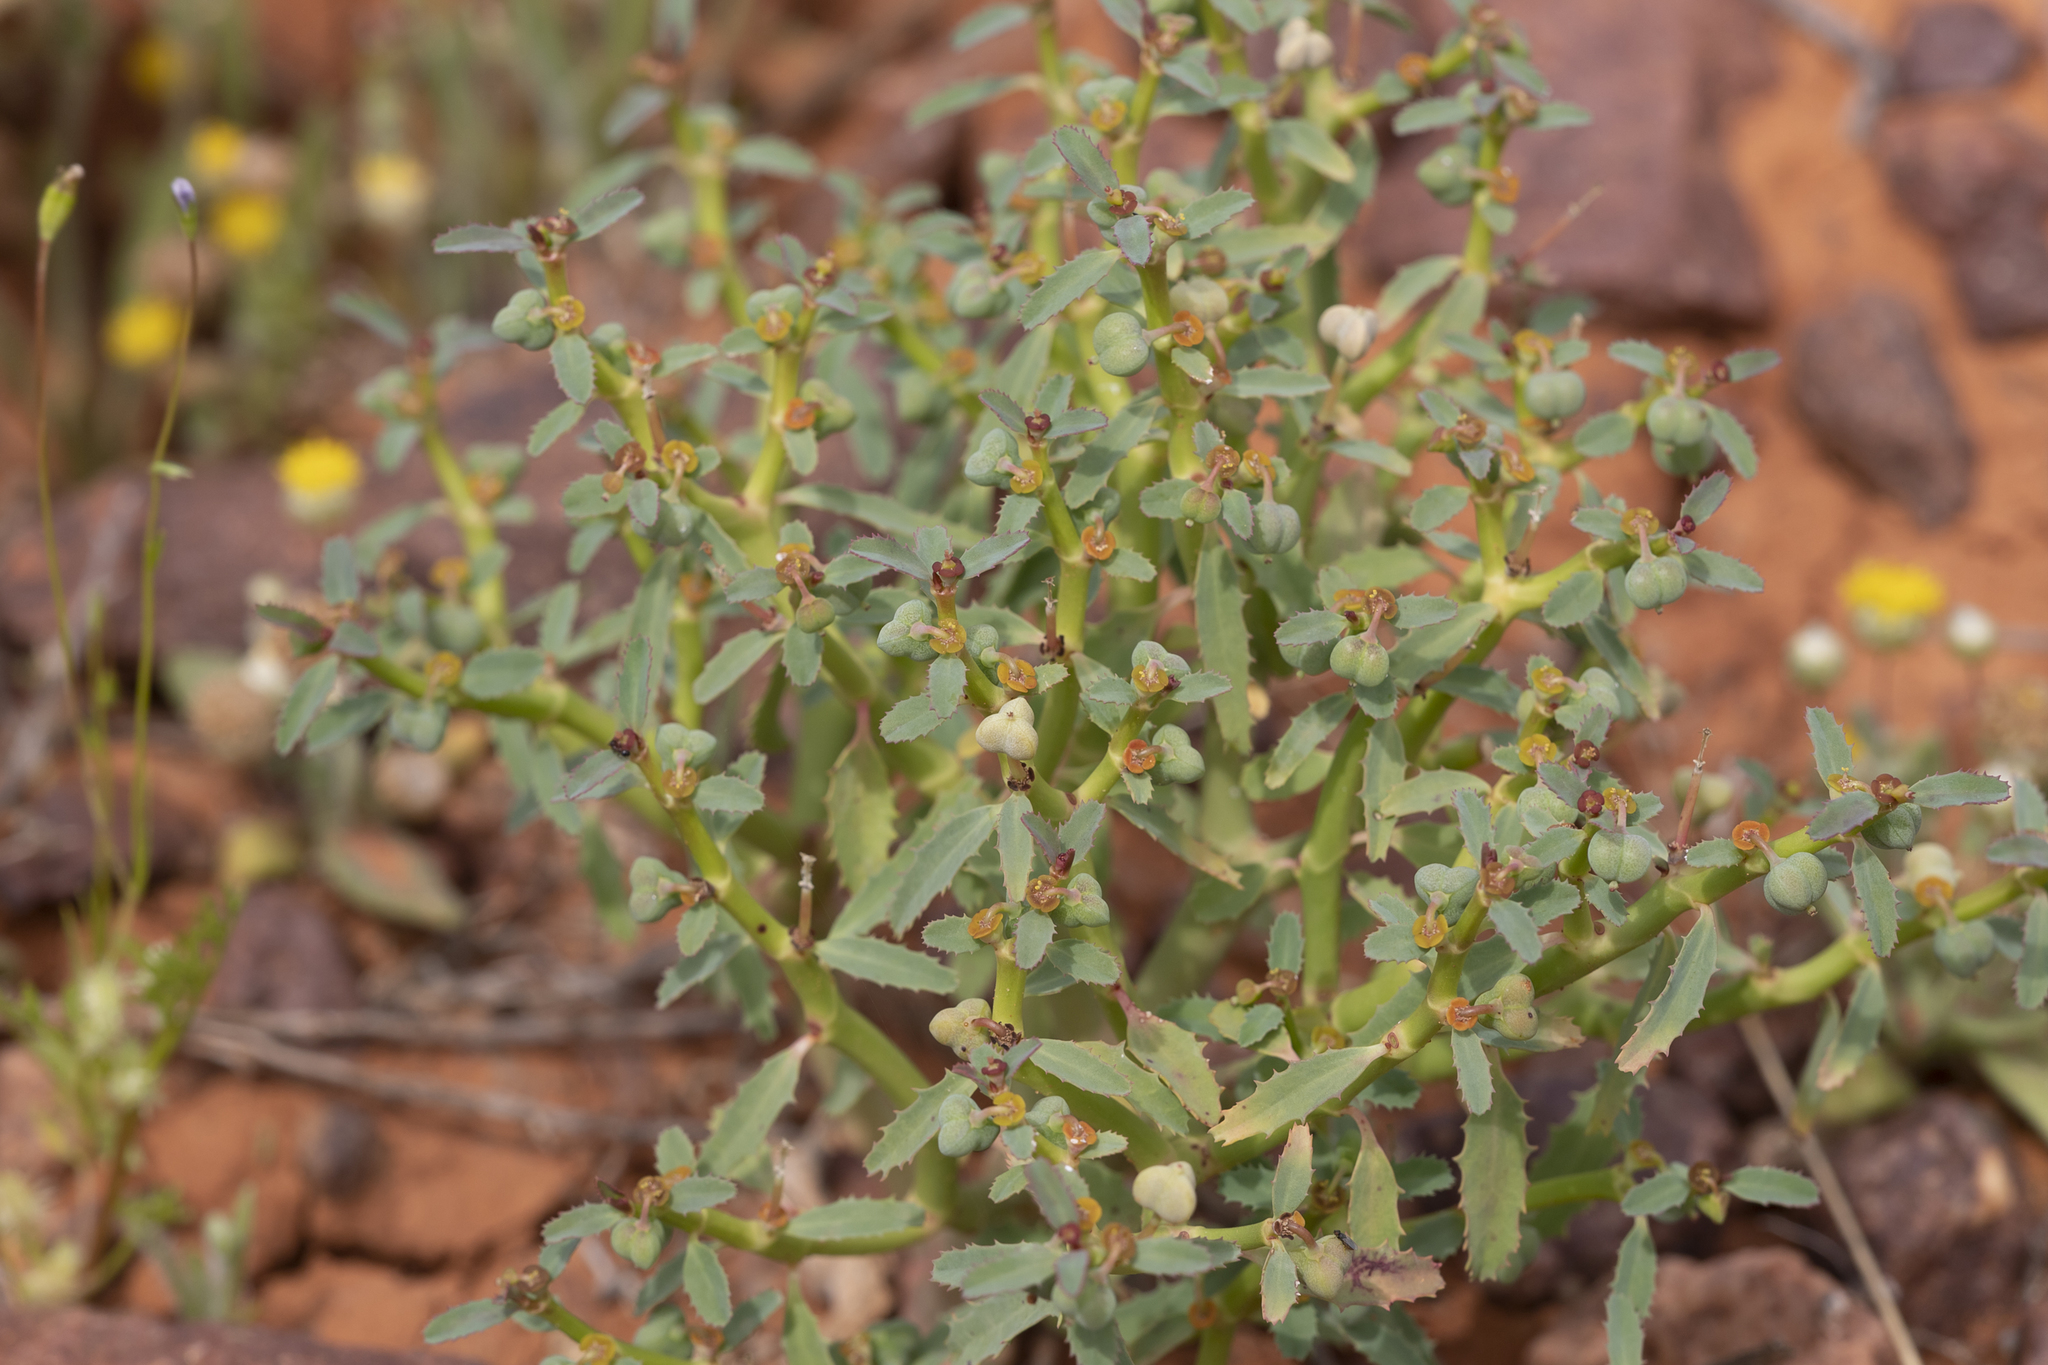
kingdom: Plantae
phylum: Tracheophyta
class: Magnoliopsida
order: Malpighiales
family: Euphorbiaceae
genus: Euphorbia
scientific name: Euphorbia stevenii
